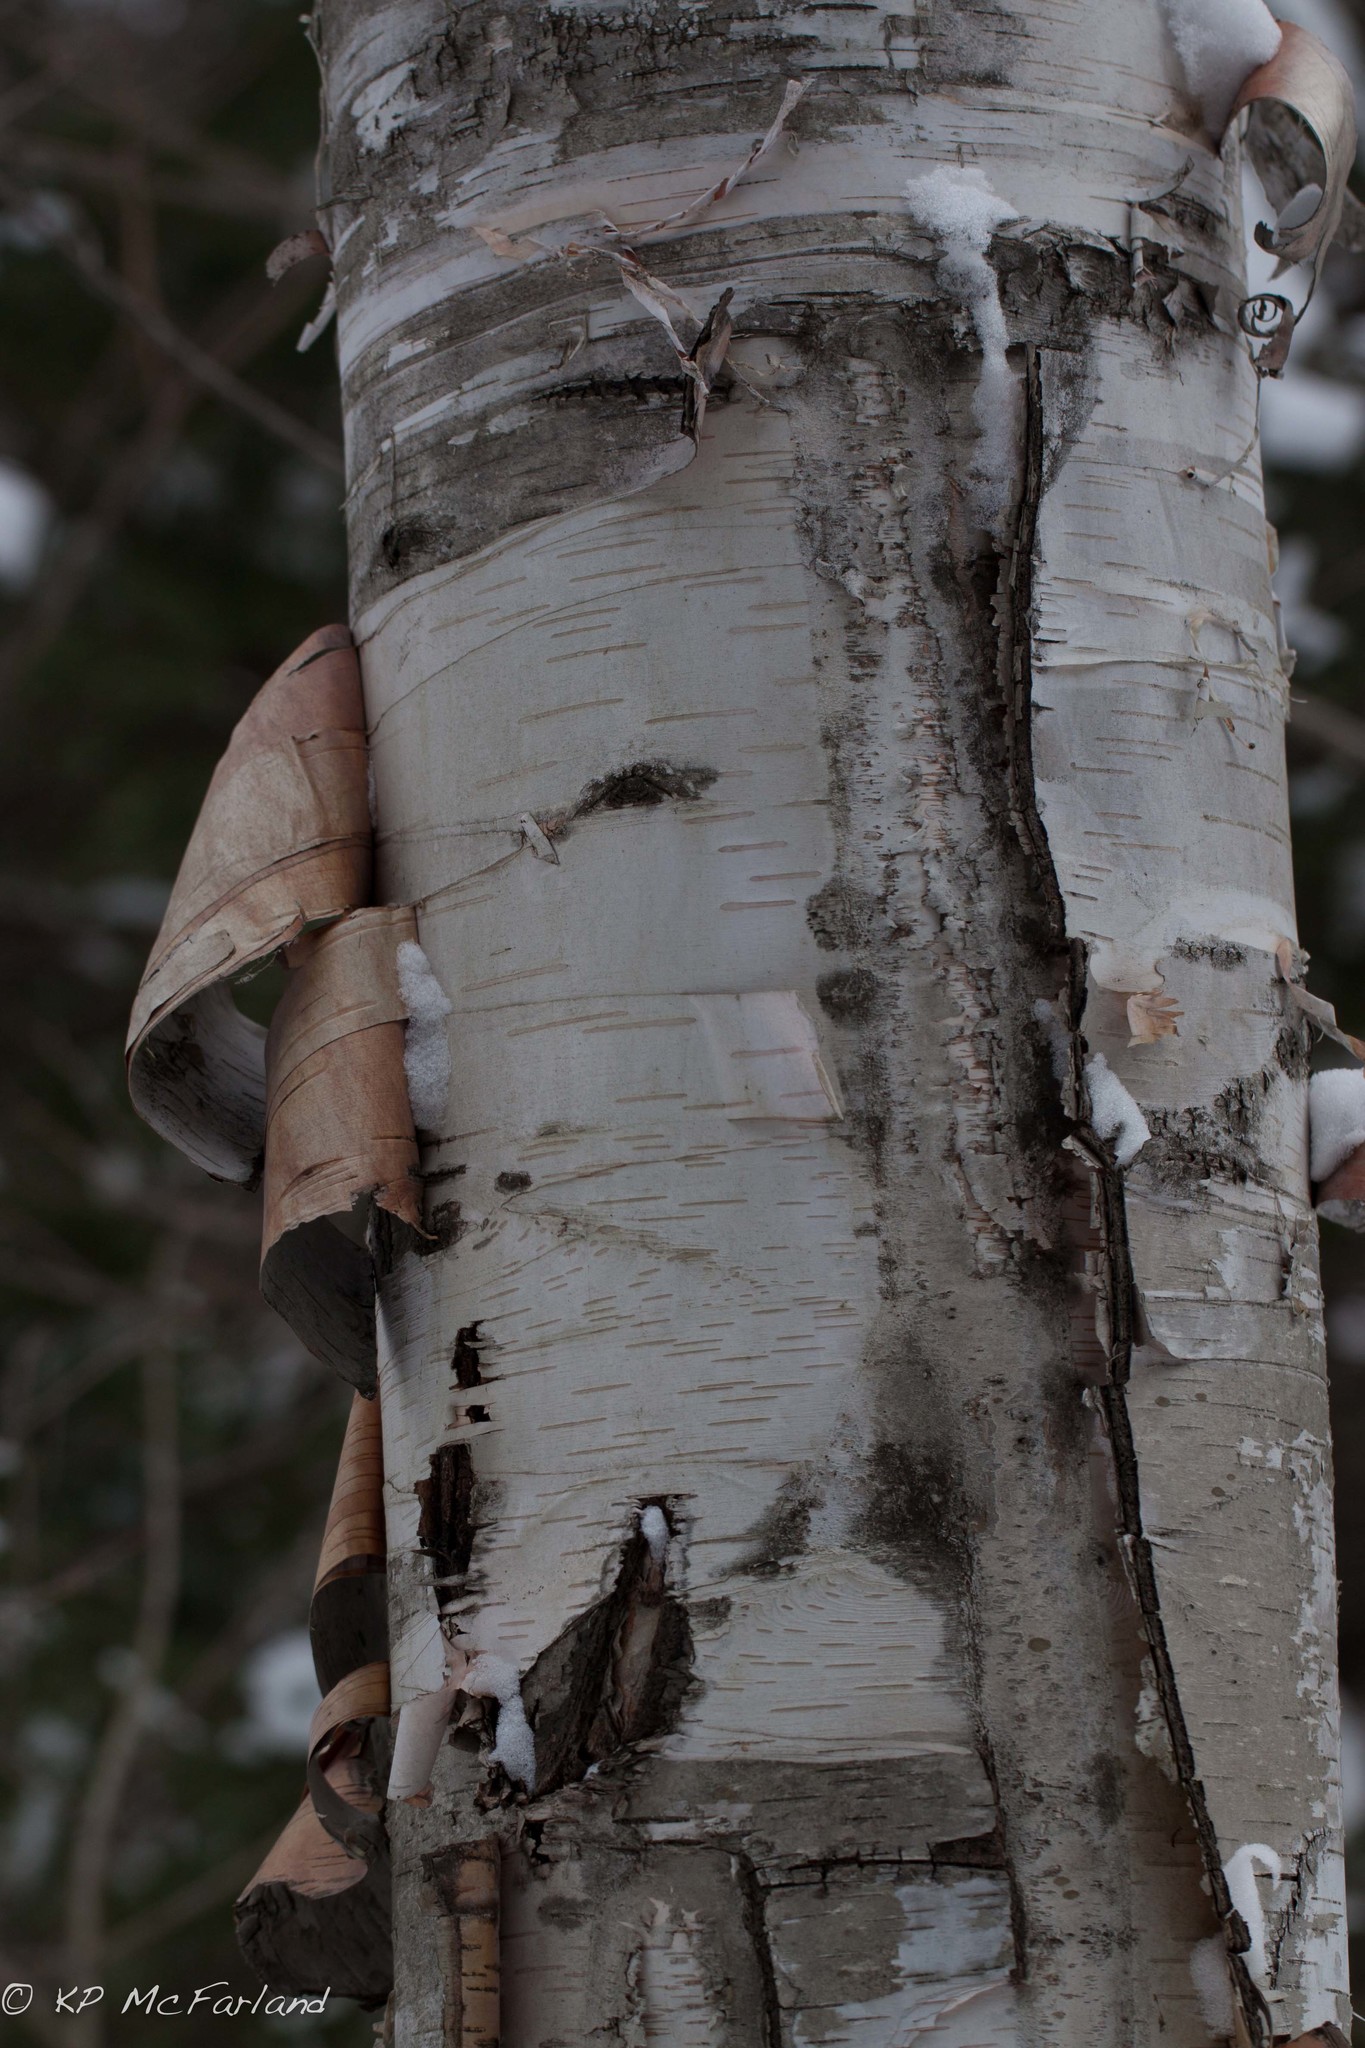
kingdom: Plantae
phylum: Tracheophyta
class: Magnoliopsida
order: Fagales
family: Betulaceae
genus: Betula
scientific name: Betula papyrifera
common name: Paper birch
